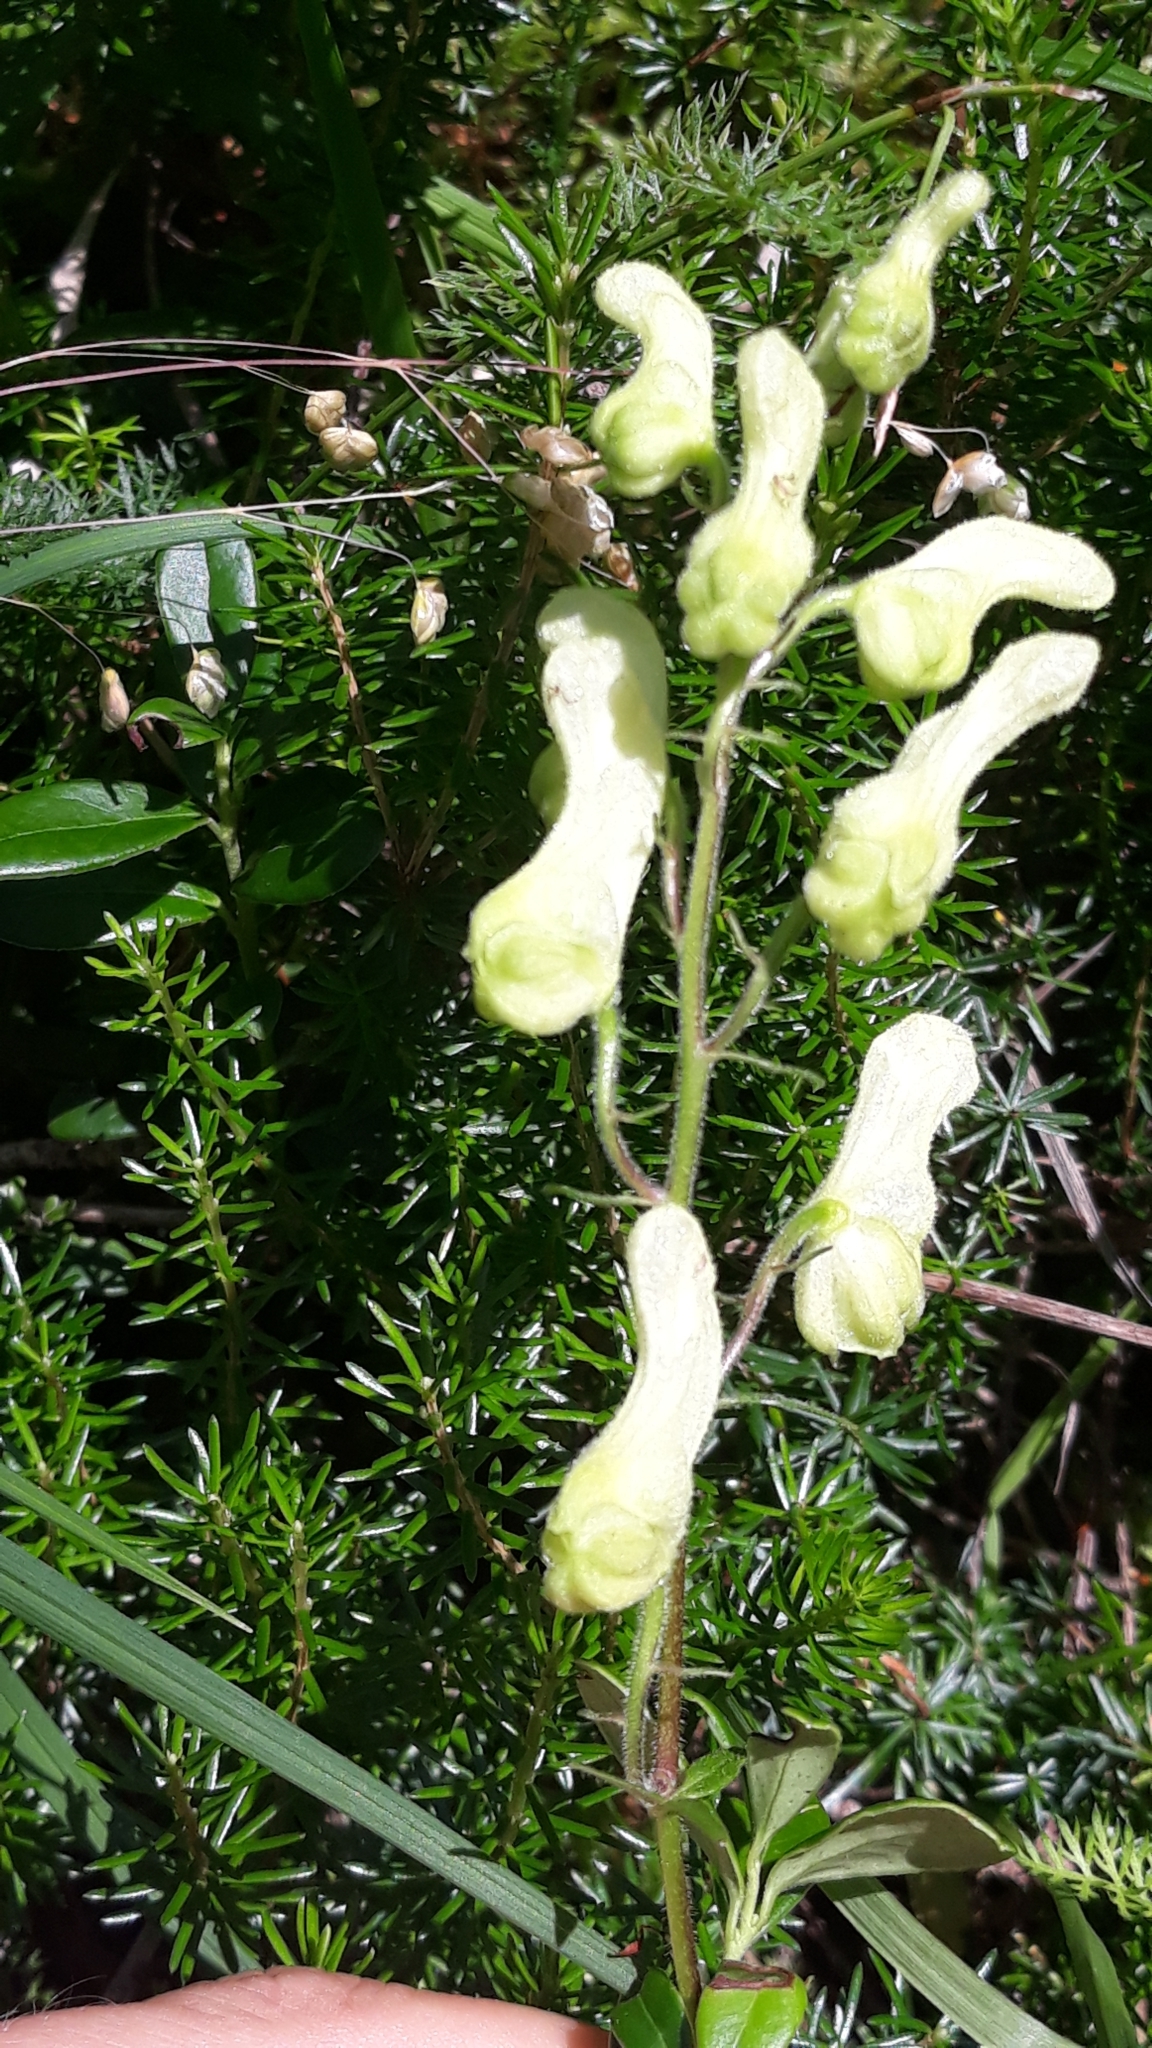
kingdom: Plantae
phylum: Tracheophyta
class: Magnoliopsida
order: Ranunculales
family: Ranunculaceae
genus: Aconitum
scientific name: Aconitum lycoctonum
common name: Wolf's-bane
